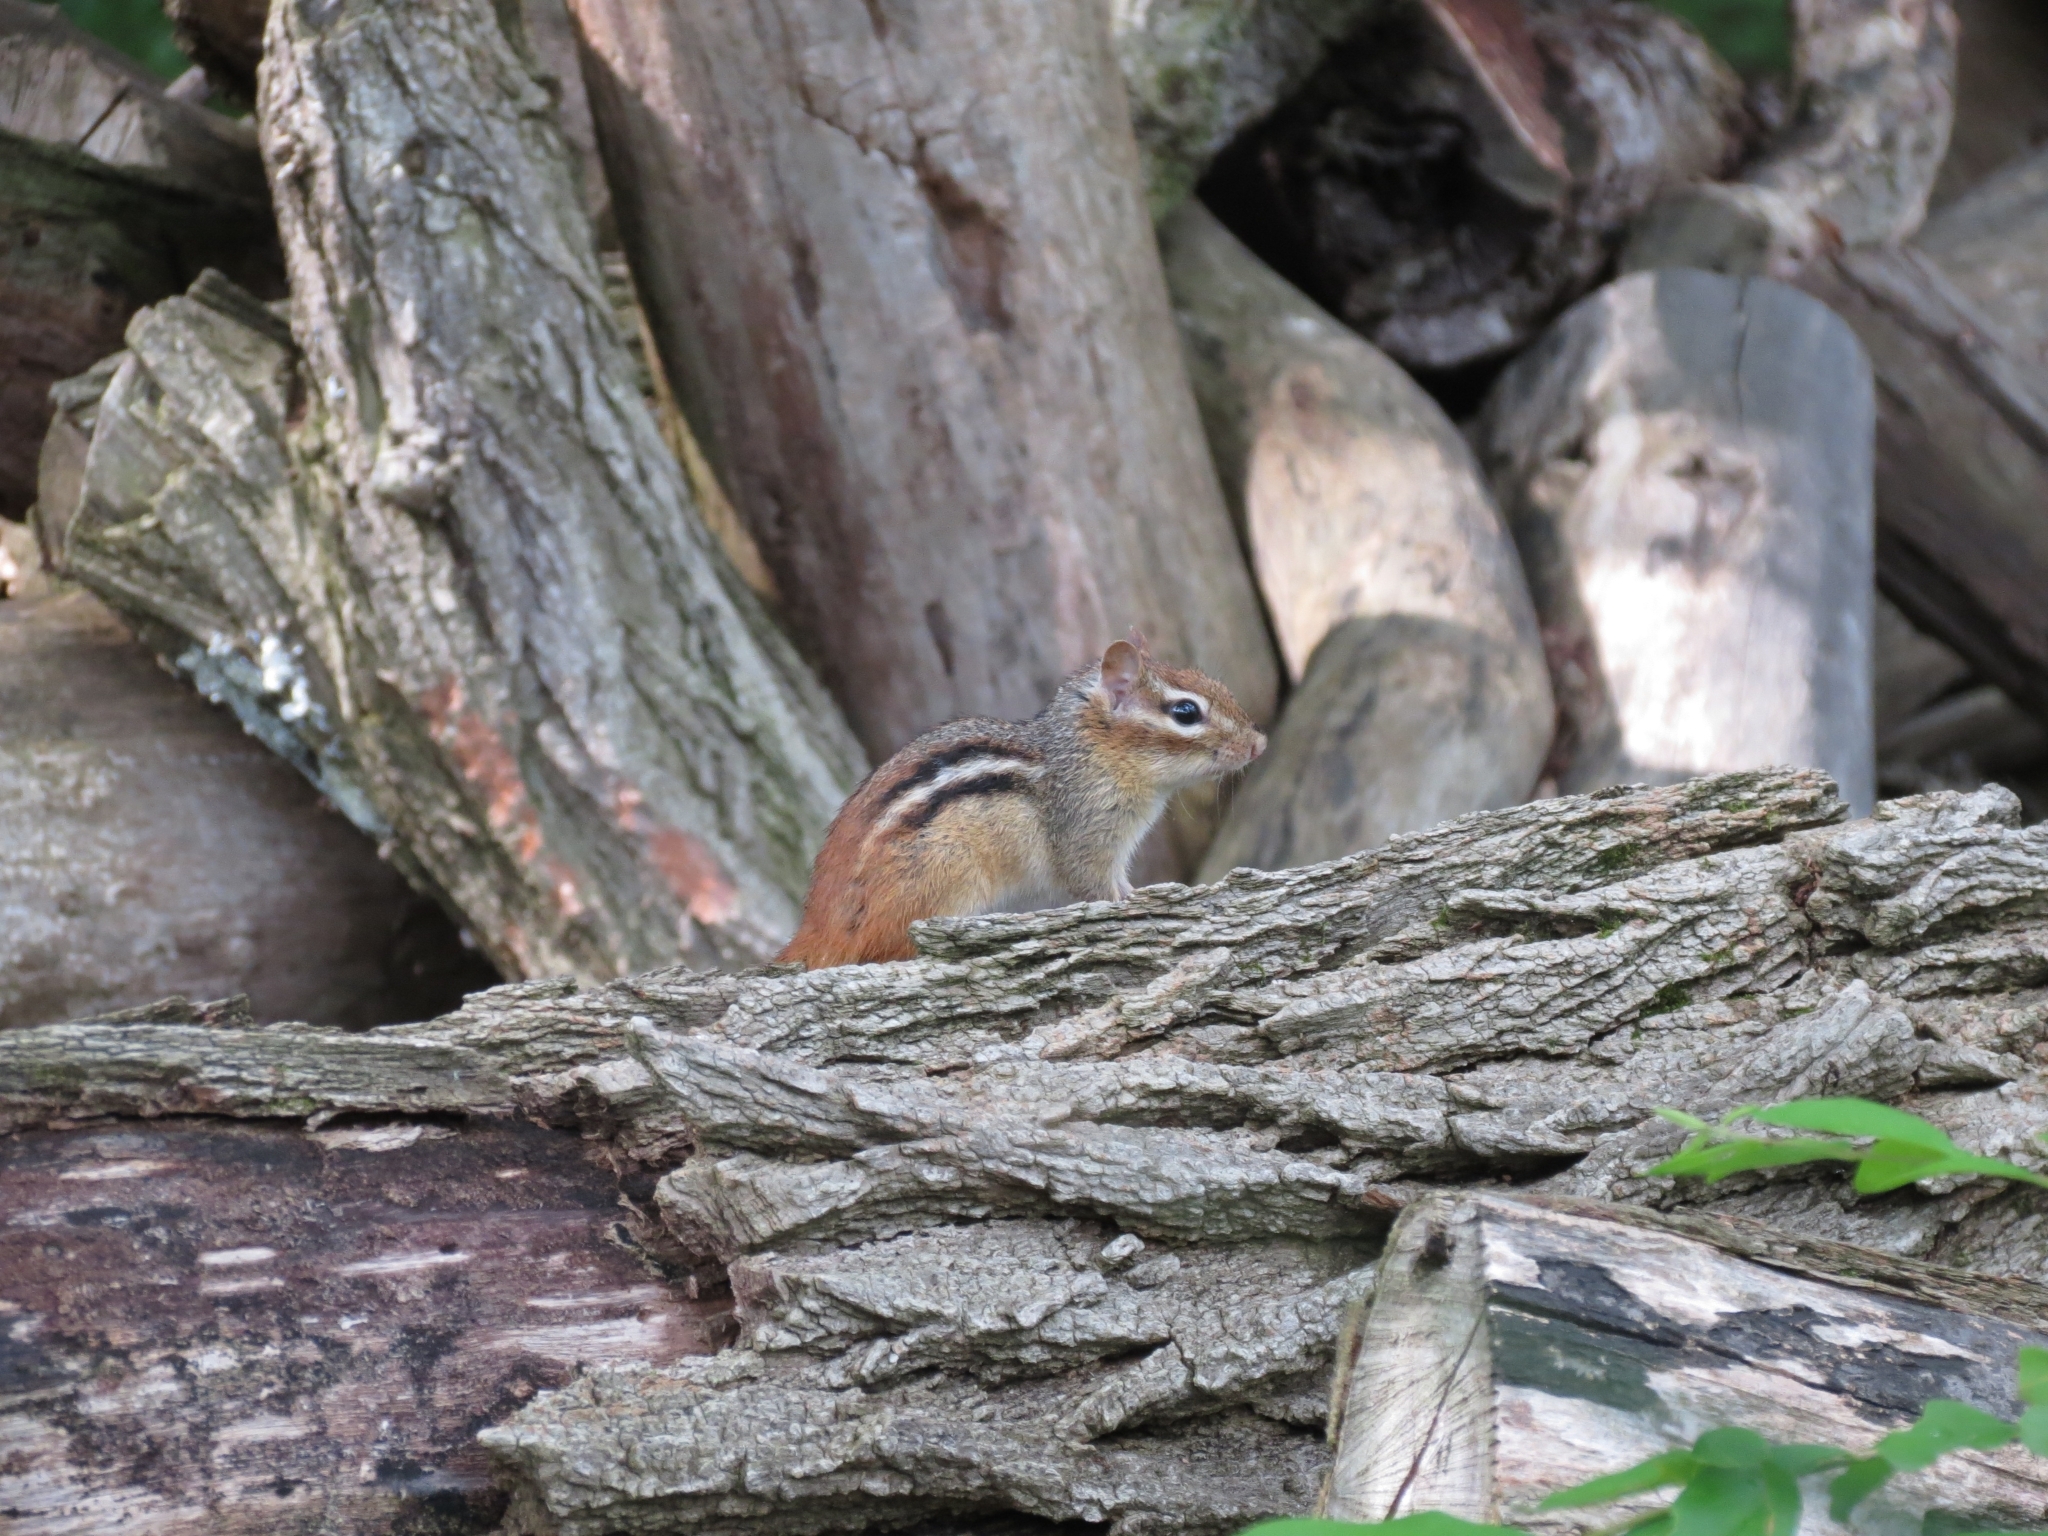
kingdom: Animalia
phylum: Chordata
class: Mammalia
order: Rodentia
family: Sciuridae
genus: Tamias
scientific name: Tamias striatus
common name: Eastern chipmunk
